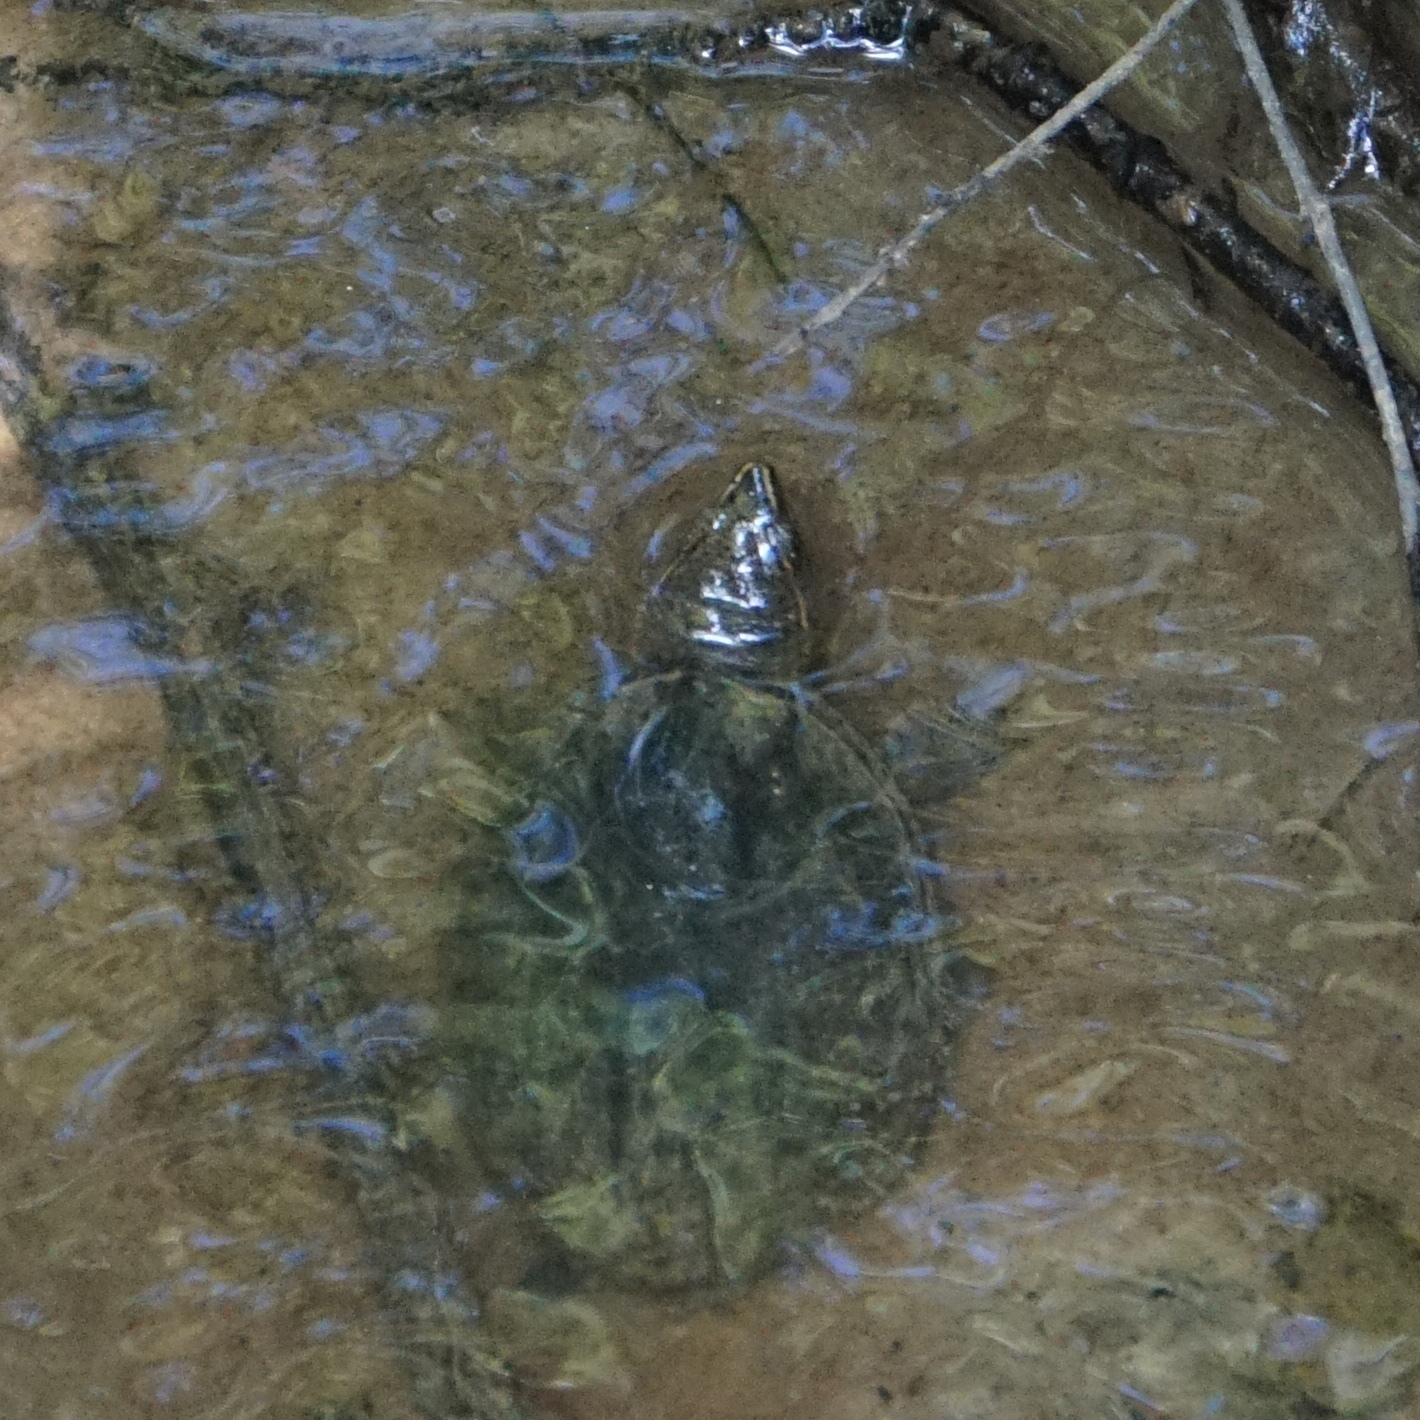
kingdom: Animalia
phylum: Chordata
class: Testudines
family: Kinosternidae
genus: Sternotherus
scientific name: Sternotherus odoratus
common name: Common musk turtle
